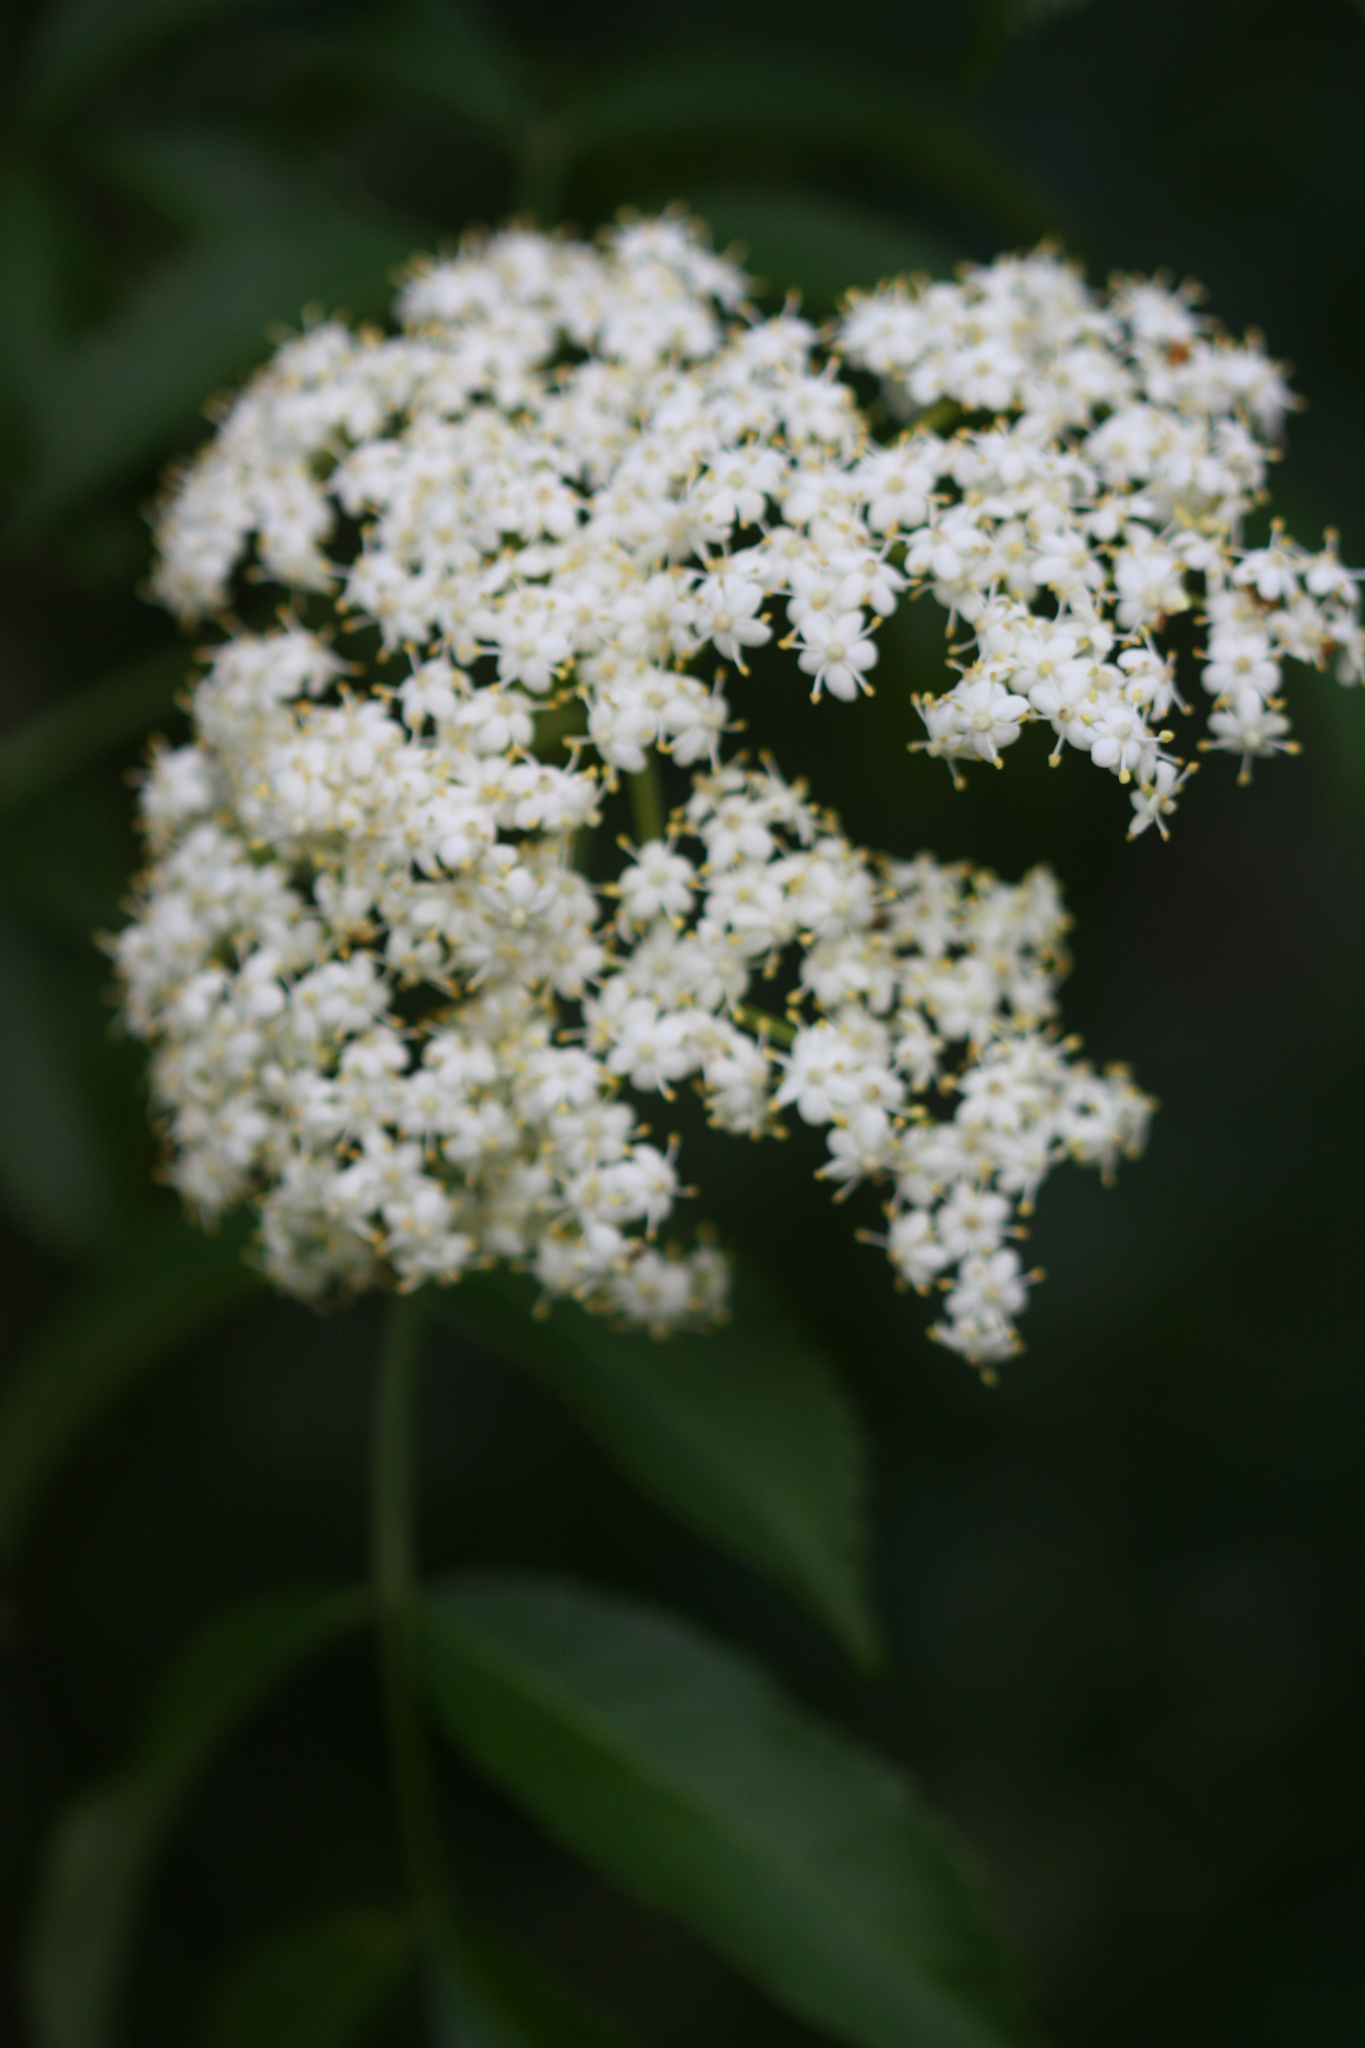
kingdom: Plantae
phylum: Tracheophyta
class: Magnoliopsida
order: Dipsacales
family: Viburnaceae
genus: Sambucus
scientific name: Sambucus canadensis
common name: American elder
